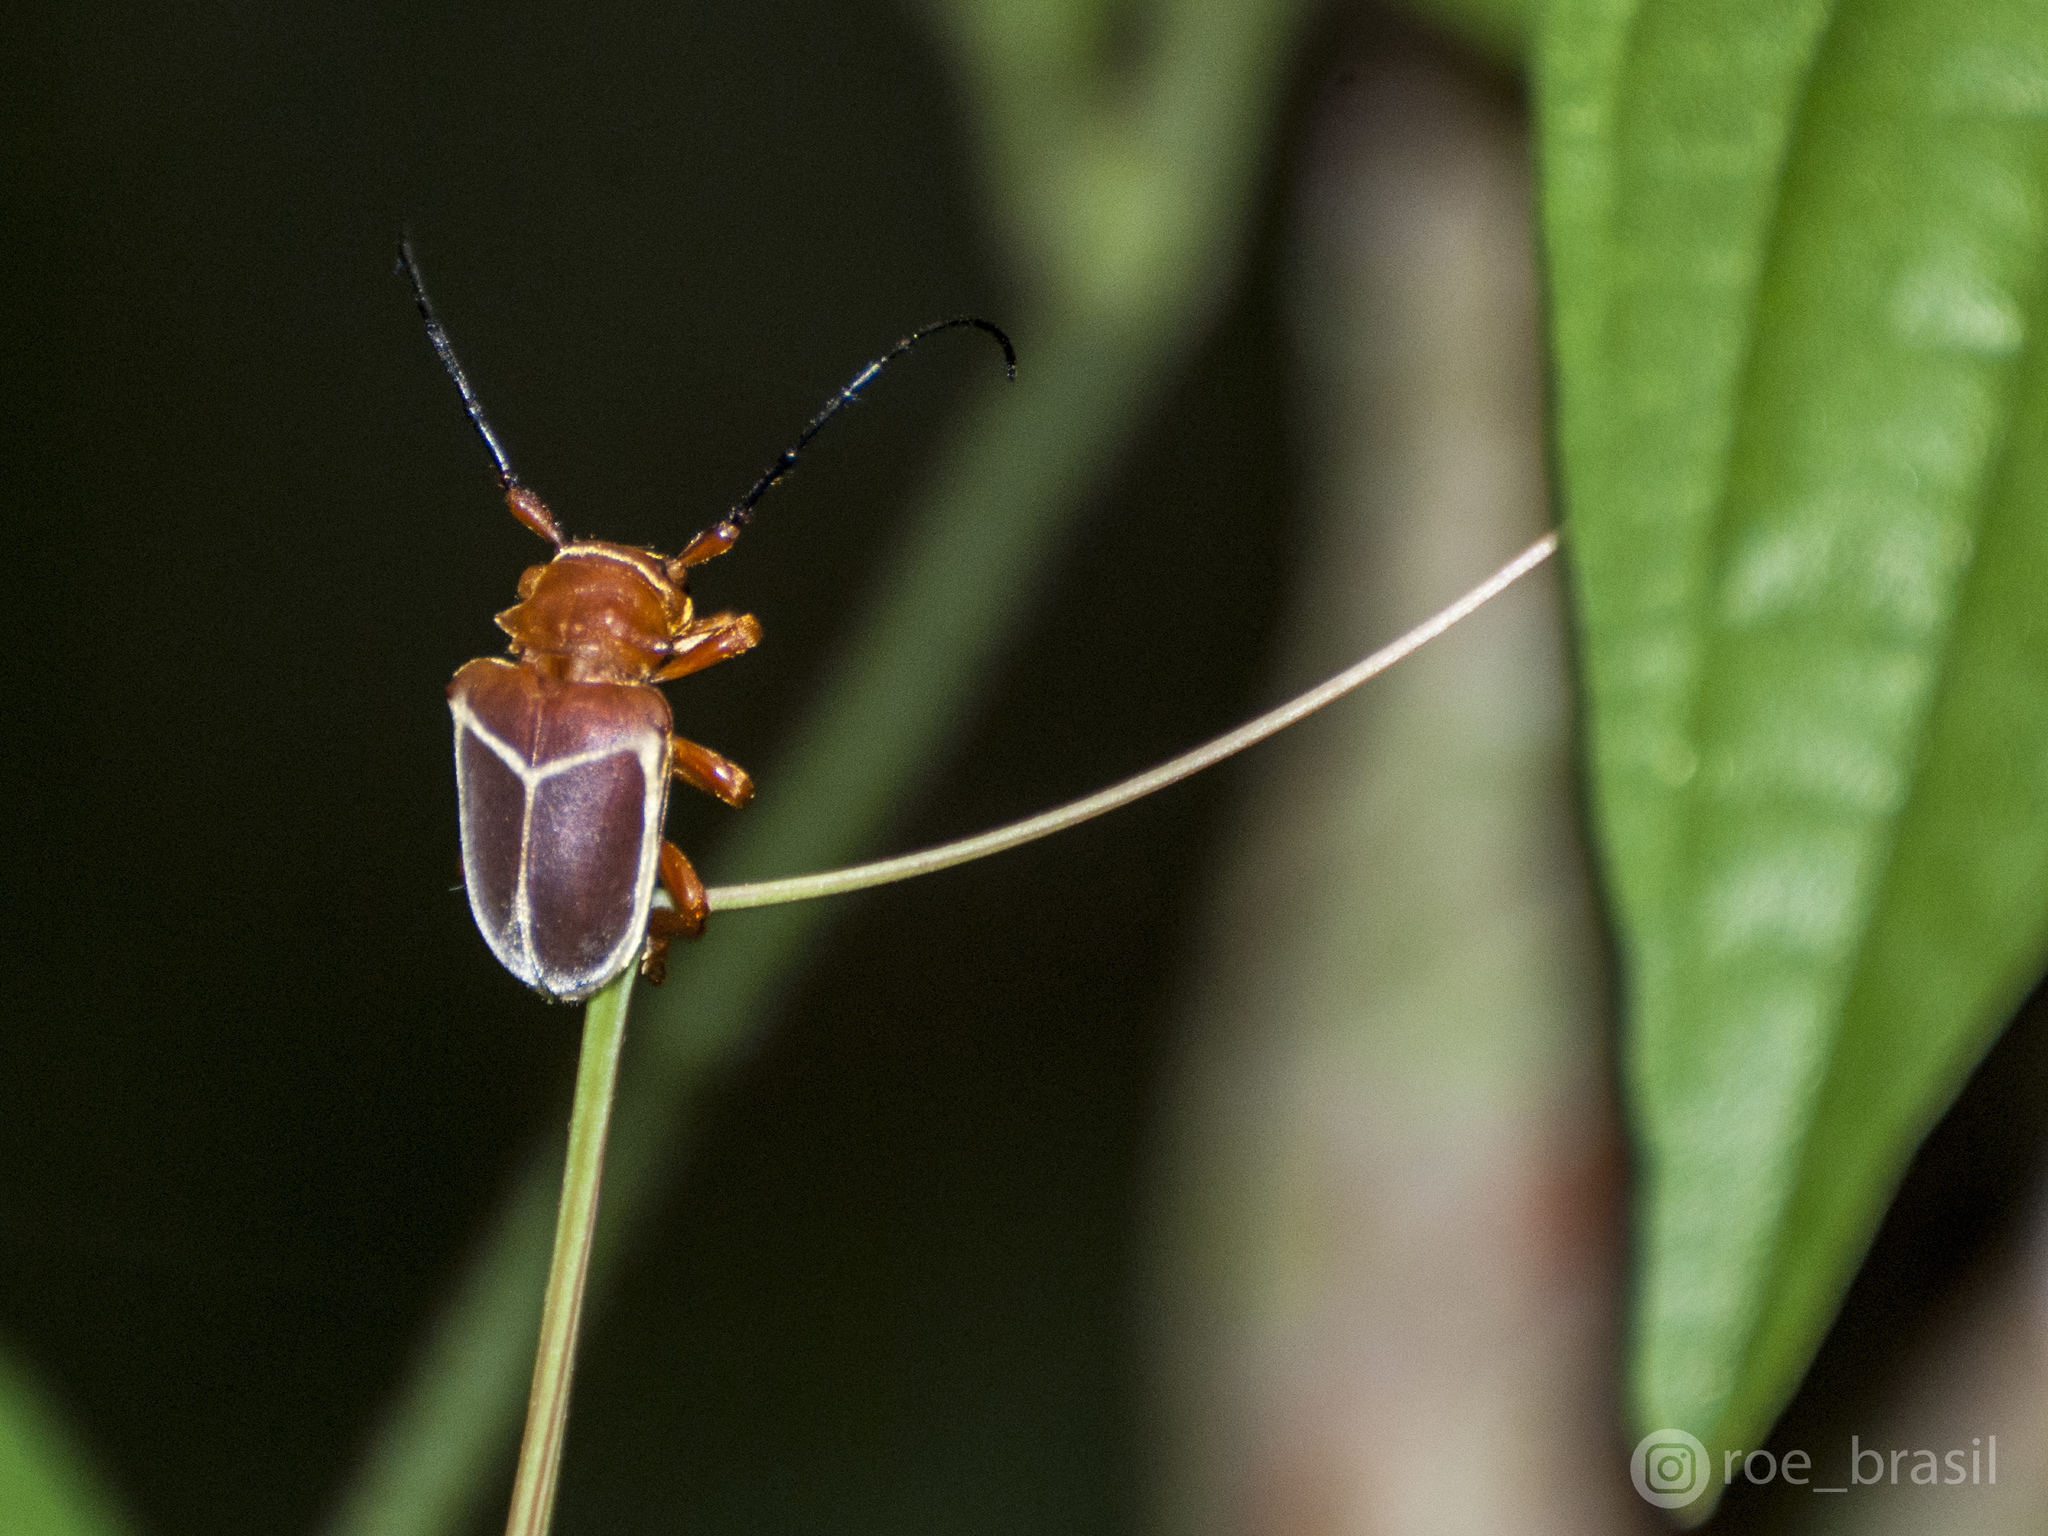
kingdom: Animalia
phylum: Arthropoda
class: Insecta
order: Coleoptera
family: Cerambycidae
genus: Pythais
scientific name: Pythais scutigera
